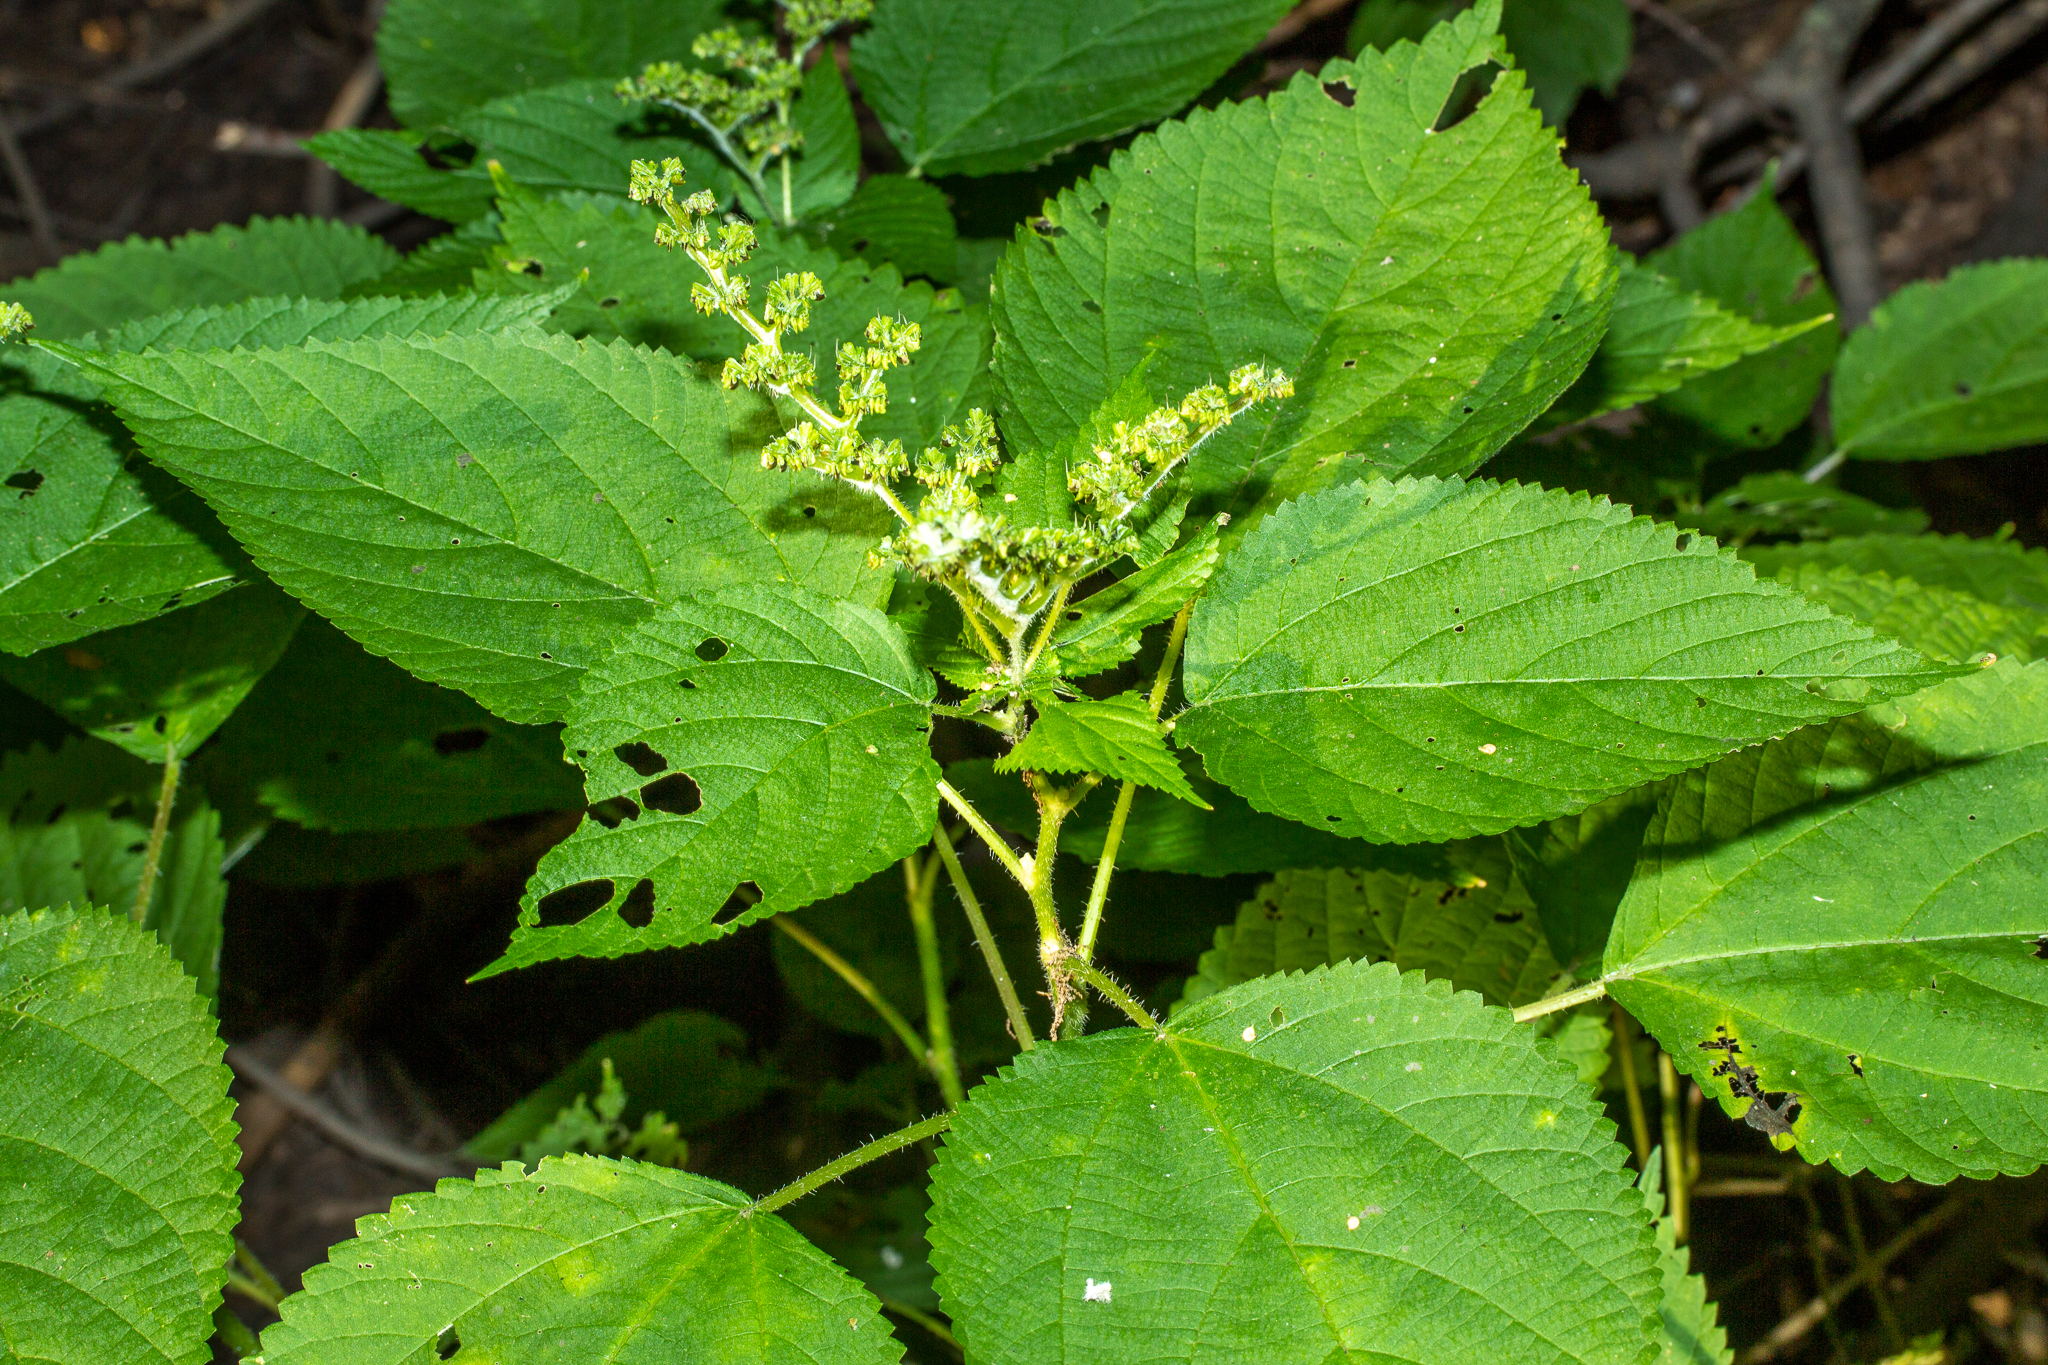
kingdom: Plantae
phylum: Tracheophyta
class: Magnoliopsida
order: Rosales
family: Urticaceae
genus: Laportea
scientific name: Laportea canadensis
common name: Canada nettle
